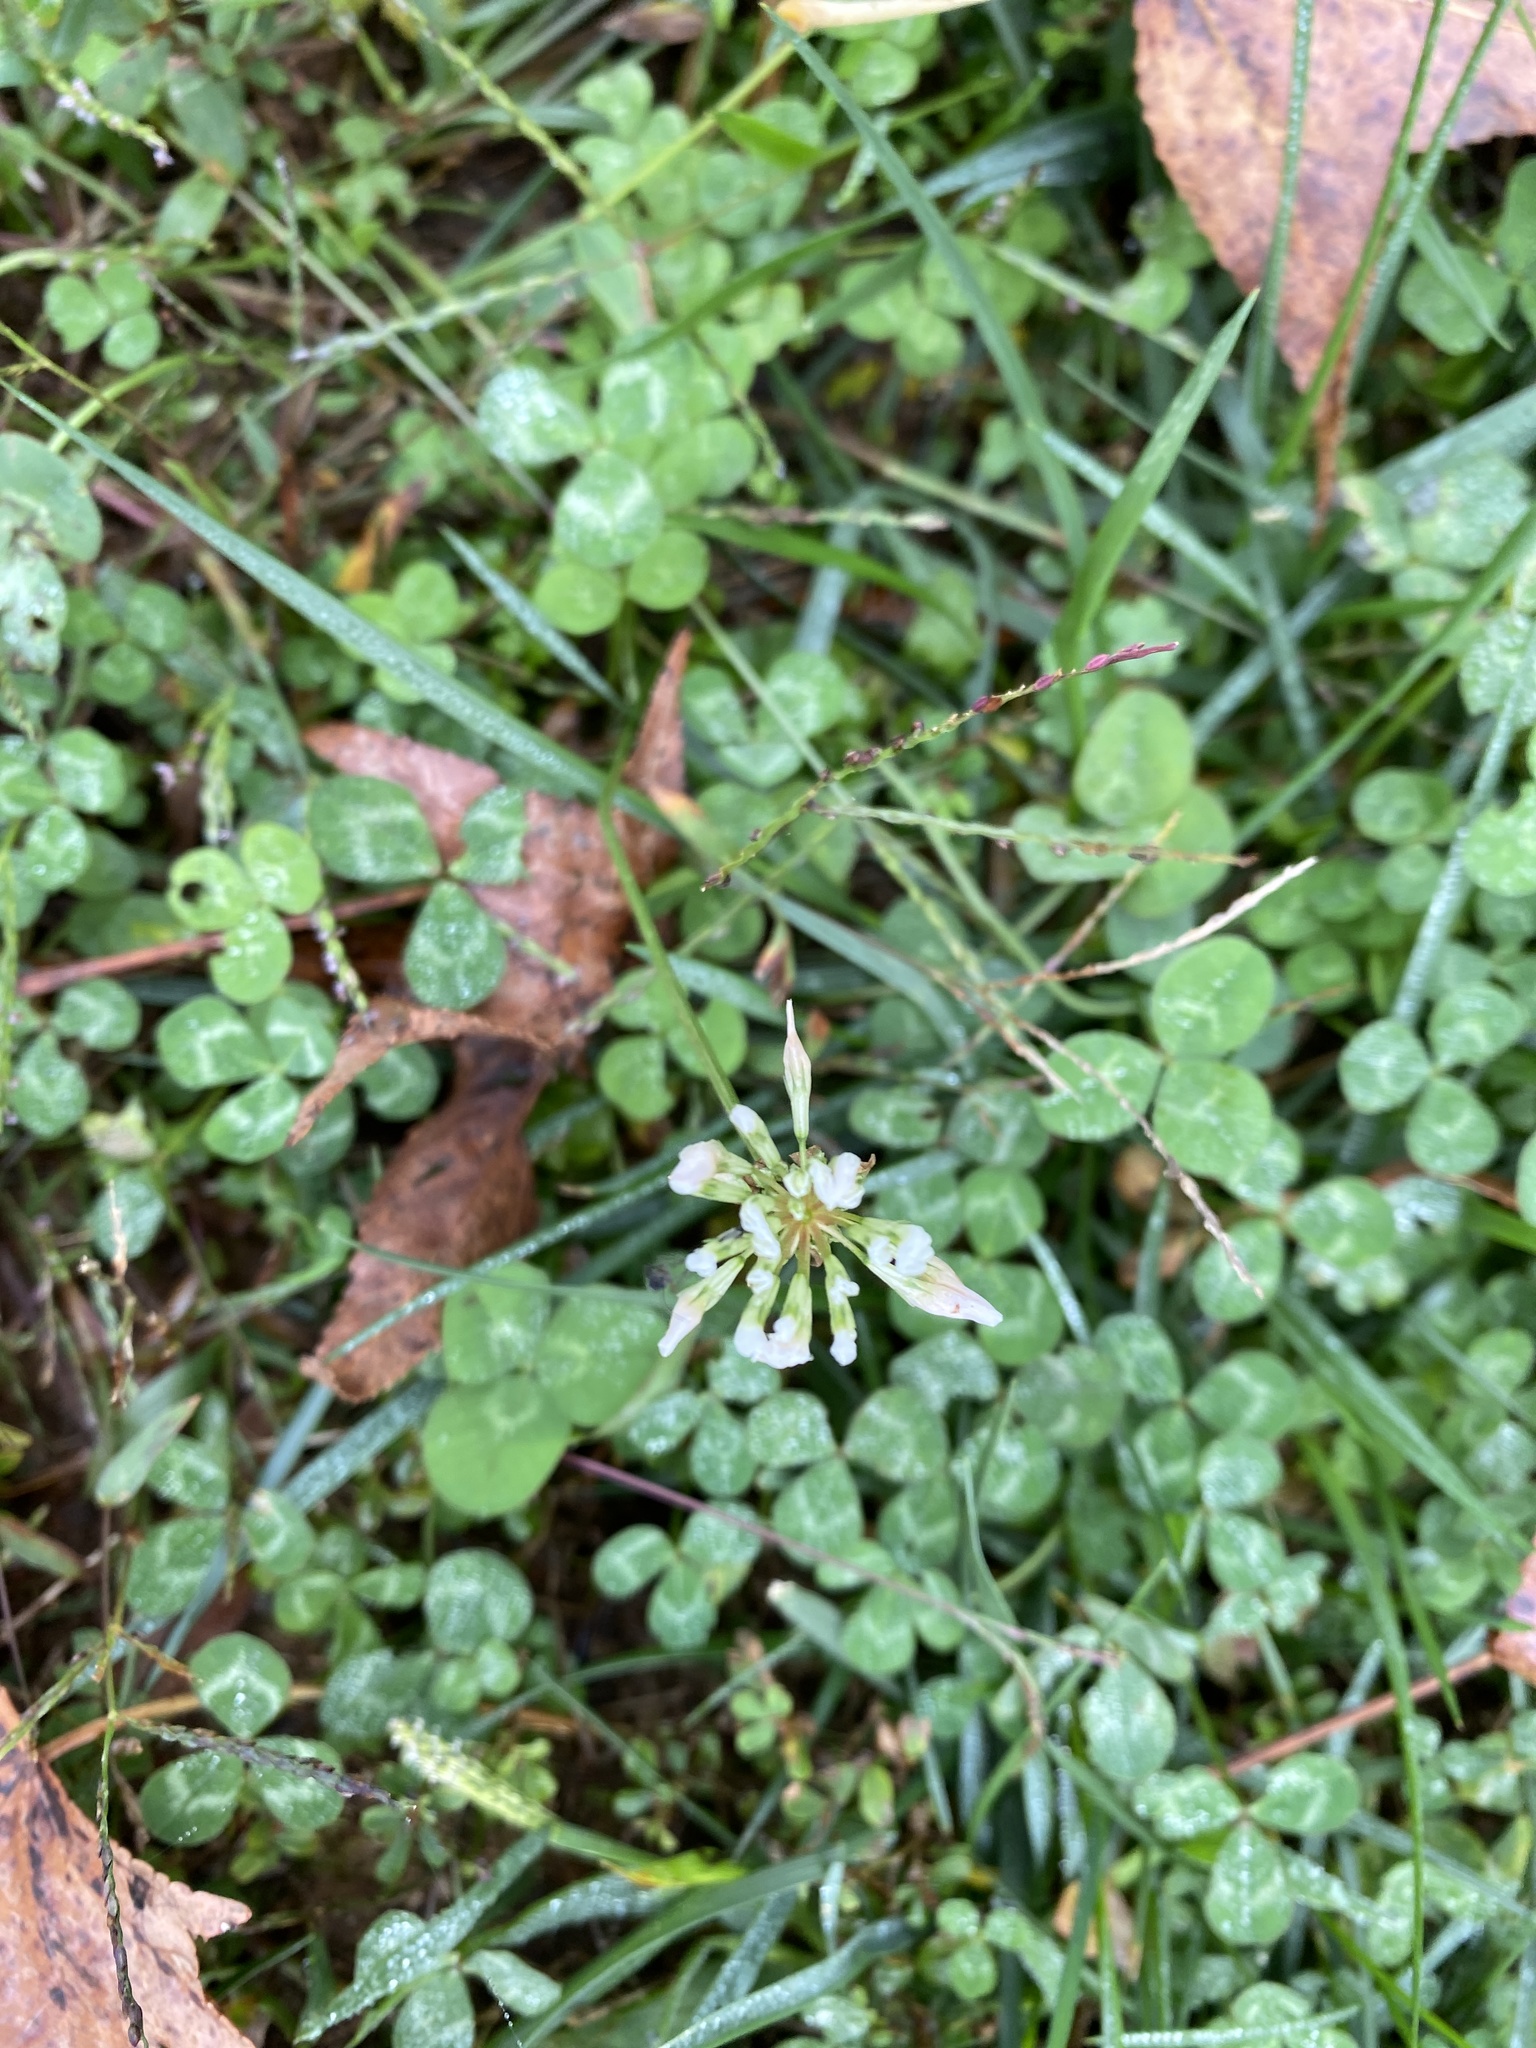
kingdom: Plantae
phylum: Tracheophyta
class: Magnoliopsida
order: Fabales
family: Fabaceae
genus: Trifolium
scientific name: Trifolium repens
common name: White clover
